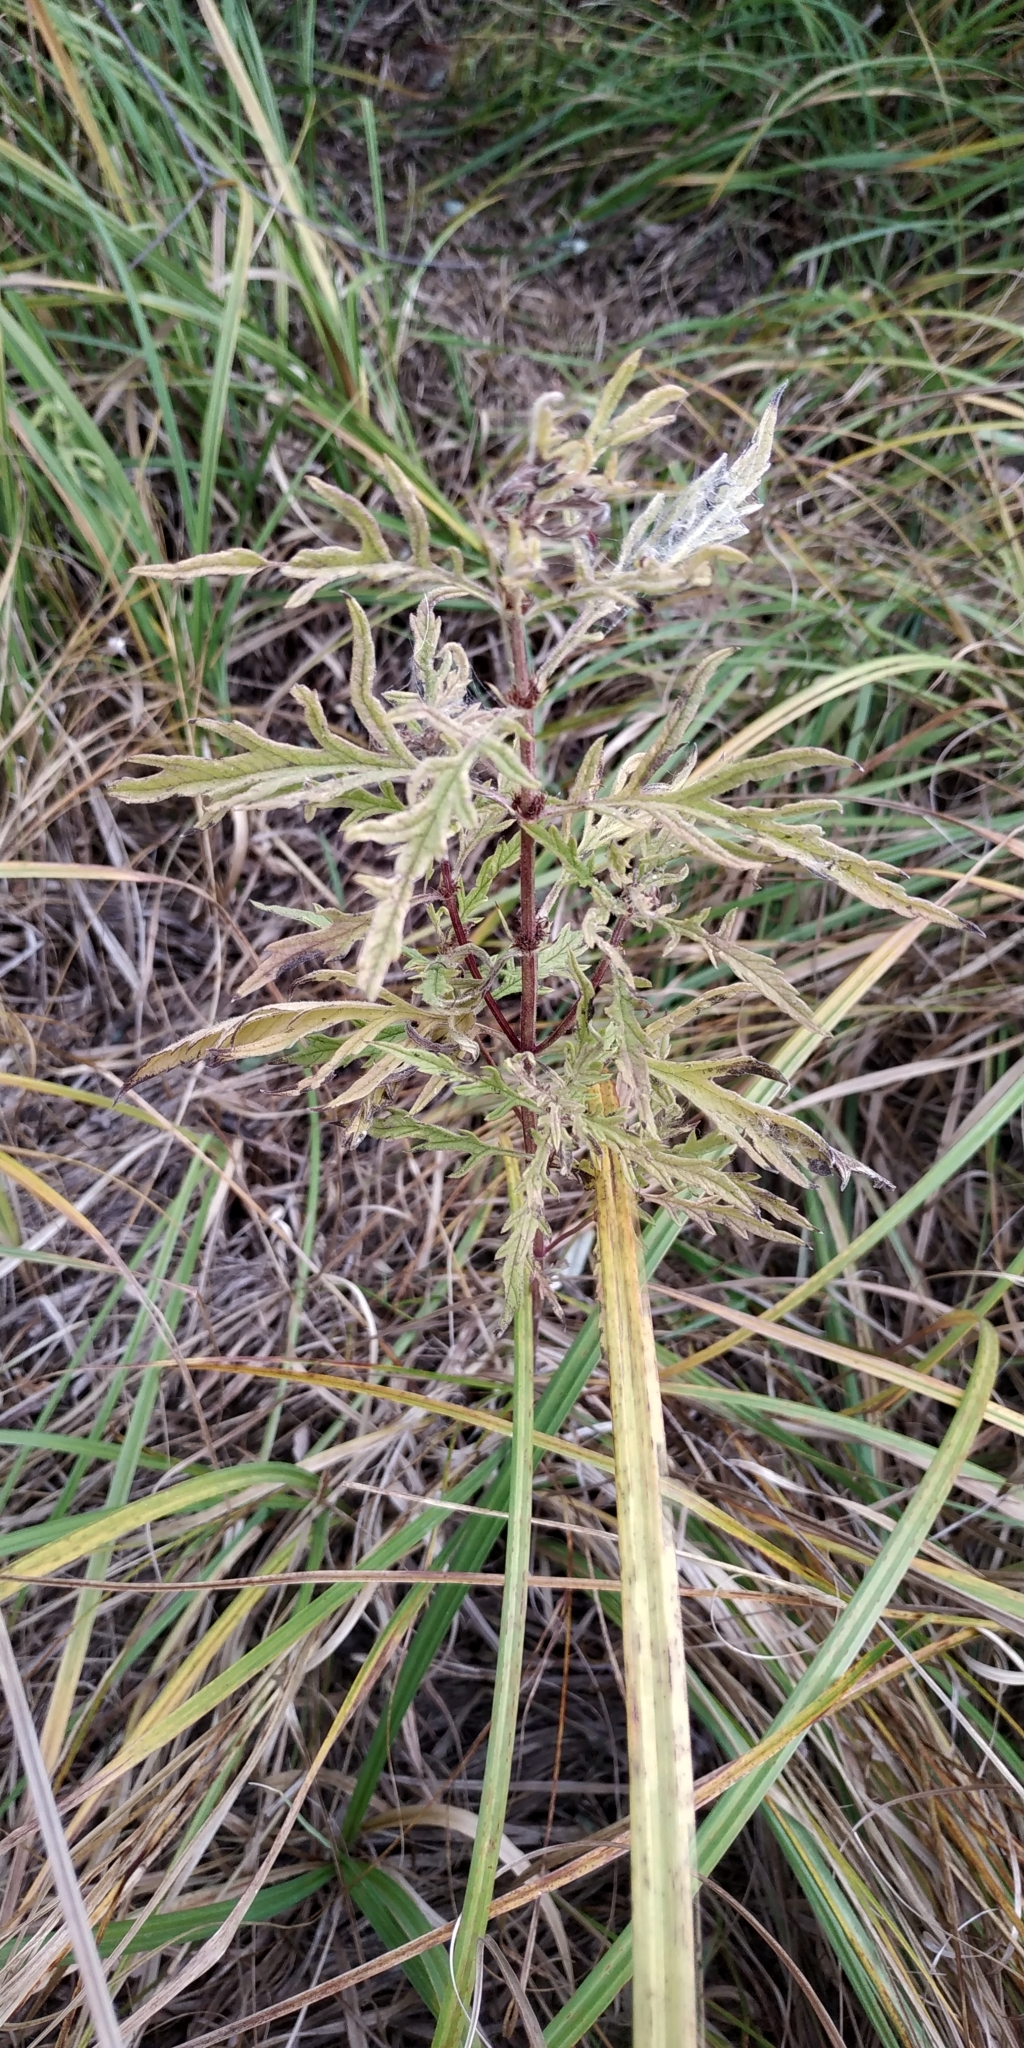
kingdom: Plantae
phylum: Tracheophyta
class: Magnoliopsida
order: Lamiales
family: Lamiaceae
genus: Lycopus
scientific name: Lycopus exaltatus
